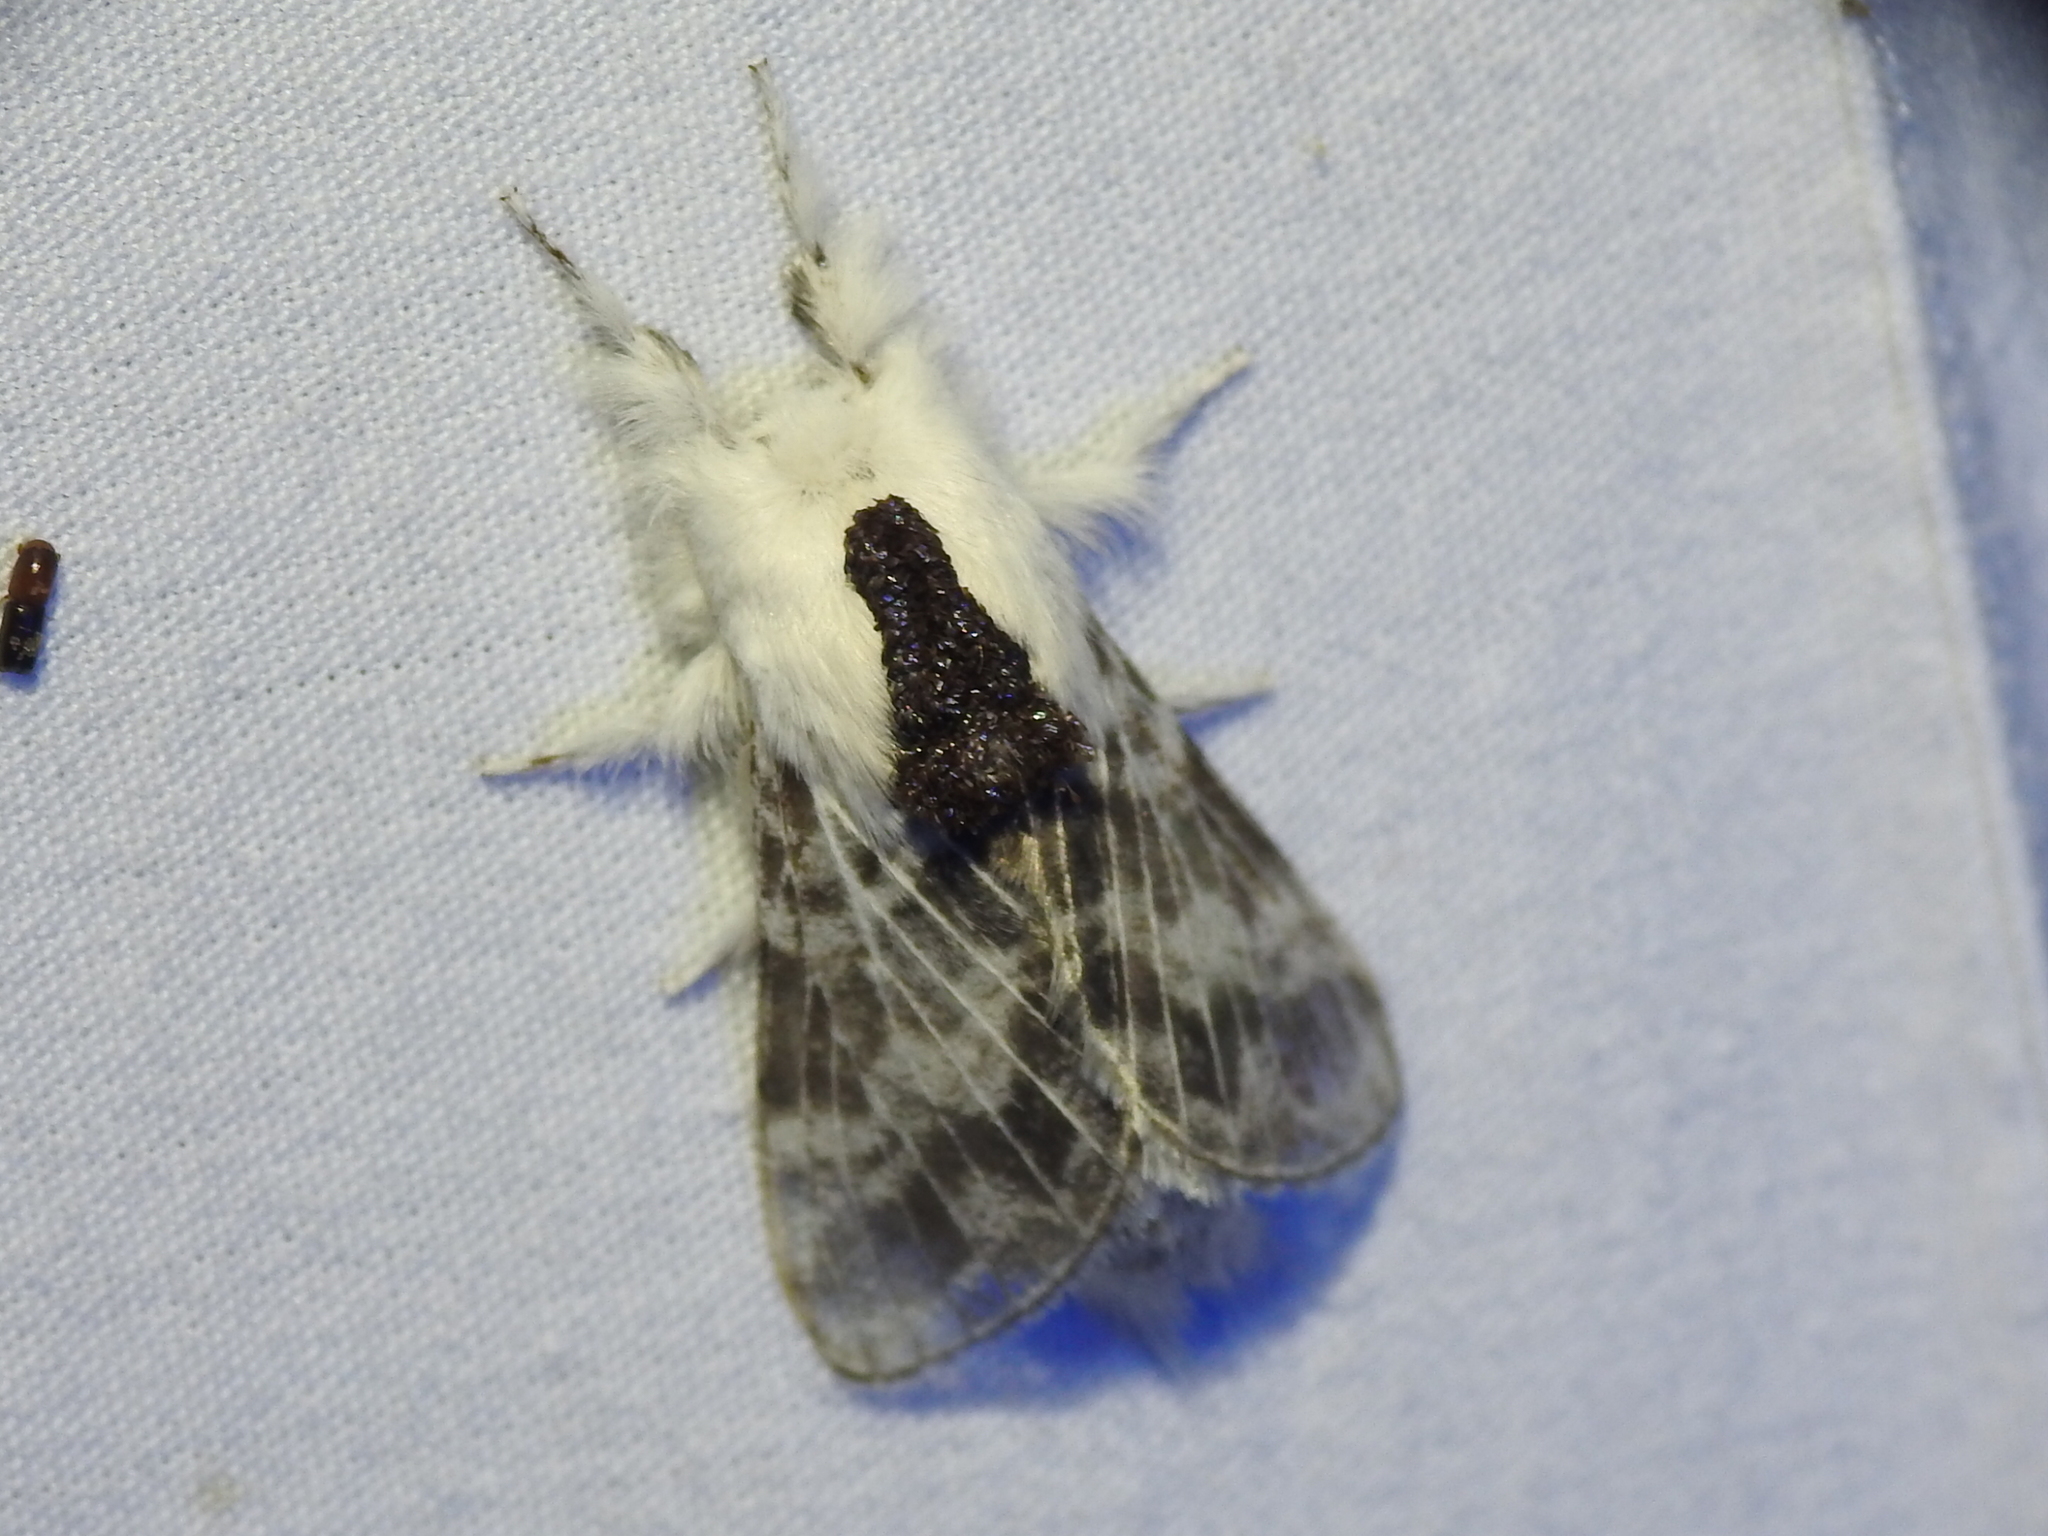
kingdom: Animalia
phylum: Arthropoda
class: Insecta
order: Lepidoptera
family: Lasiocampidae
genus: Tolype
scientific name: Tolype velleda
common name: Large tolype moth
